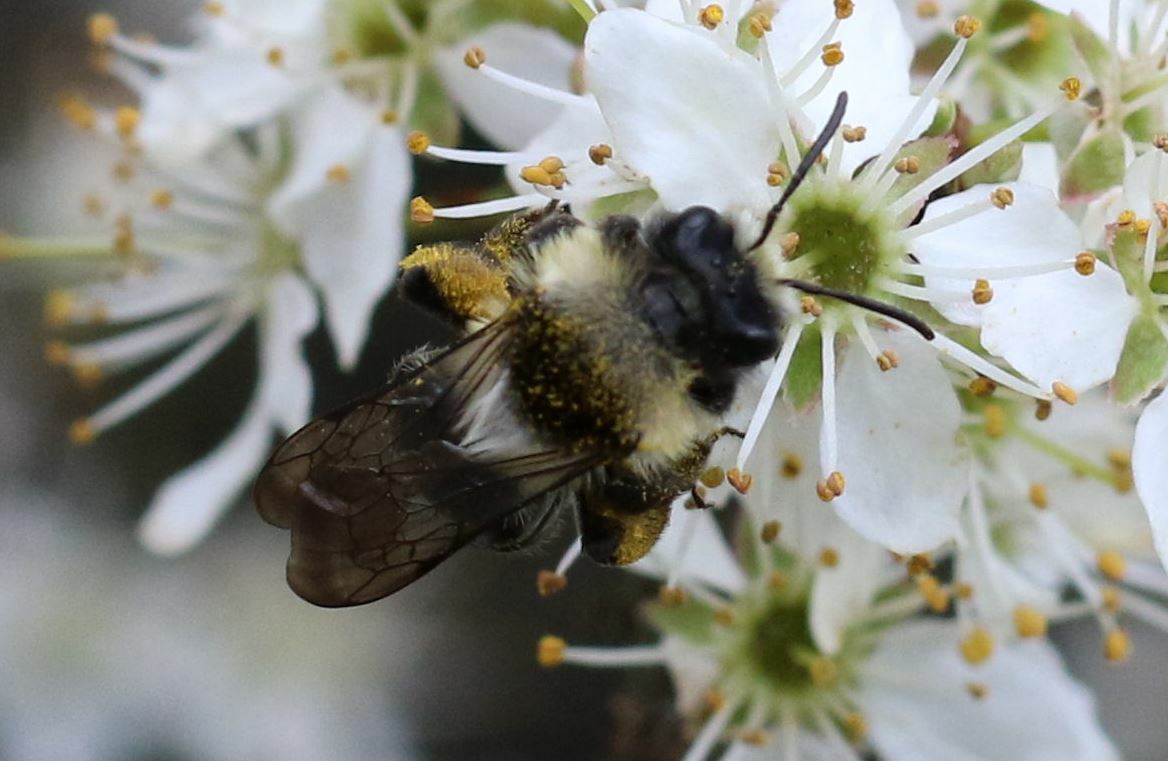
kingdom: Animalia
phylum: Arthropoda
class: Insecta
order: Hymenoptera
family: Andrenidae
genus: Andrena
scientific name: Andrena cineraria
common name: Ashy mining bee
